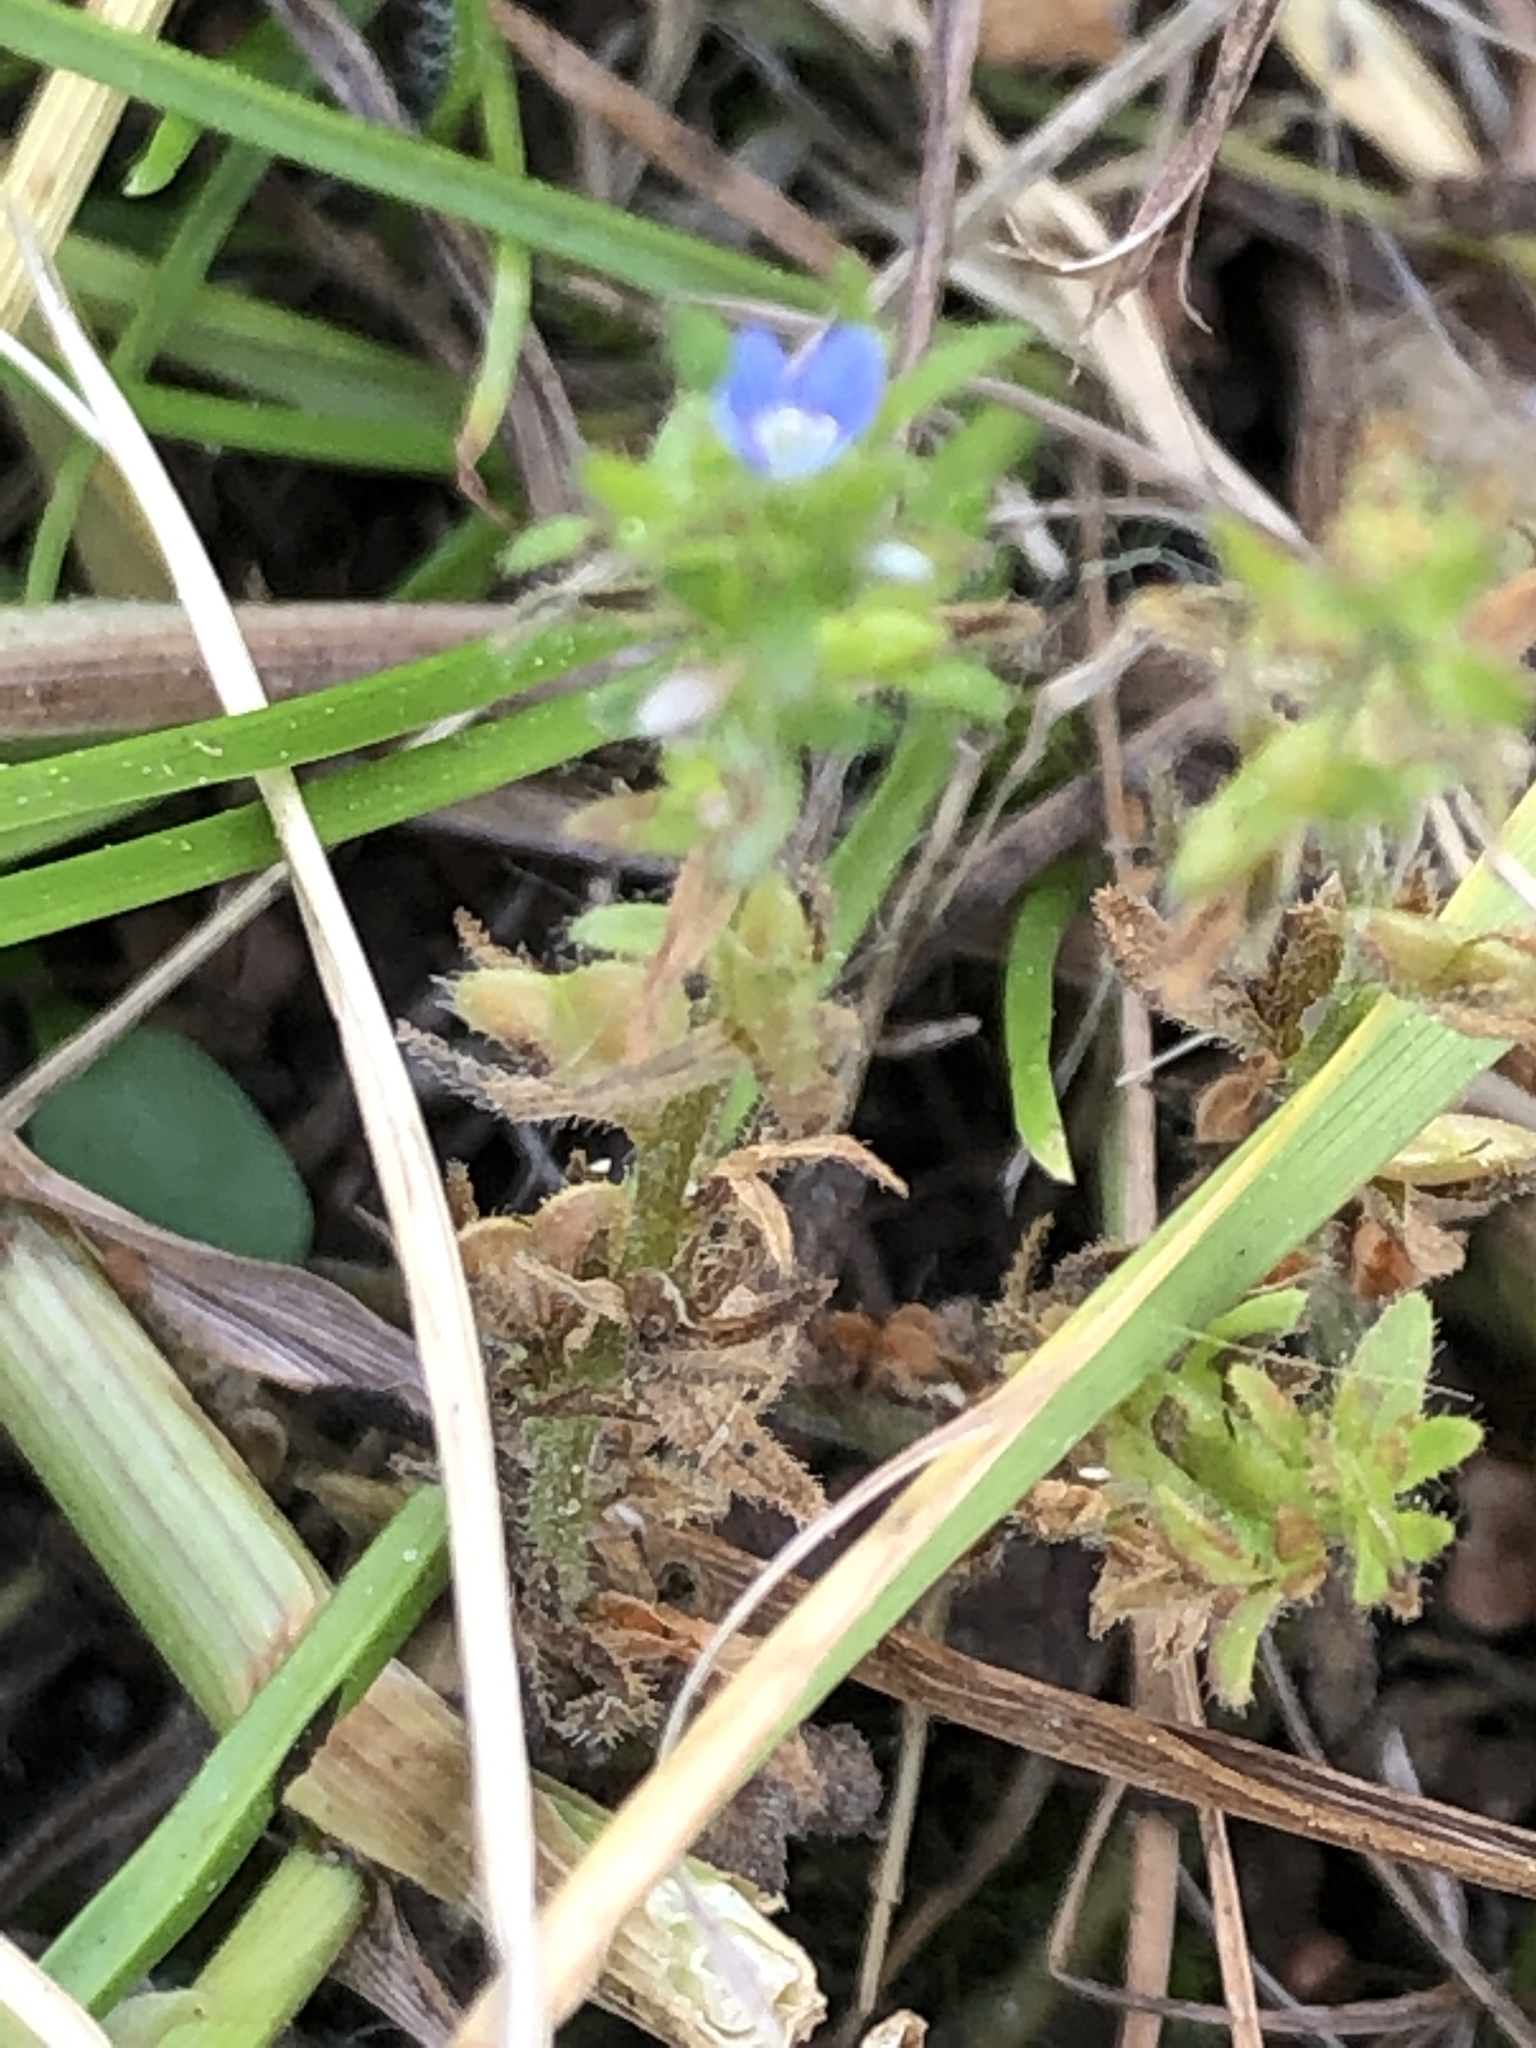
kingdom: Plantae
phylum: Tracheophyta
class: Magnoliopsida
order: Lamiales
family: Plantaginaceae
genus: Veronica
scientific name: Veronica arvensis
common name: Corn speedwell
